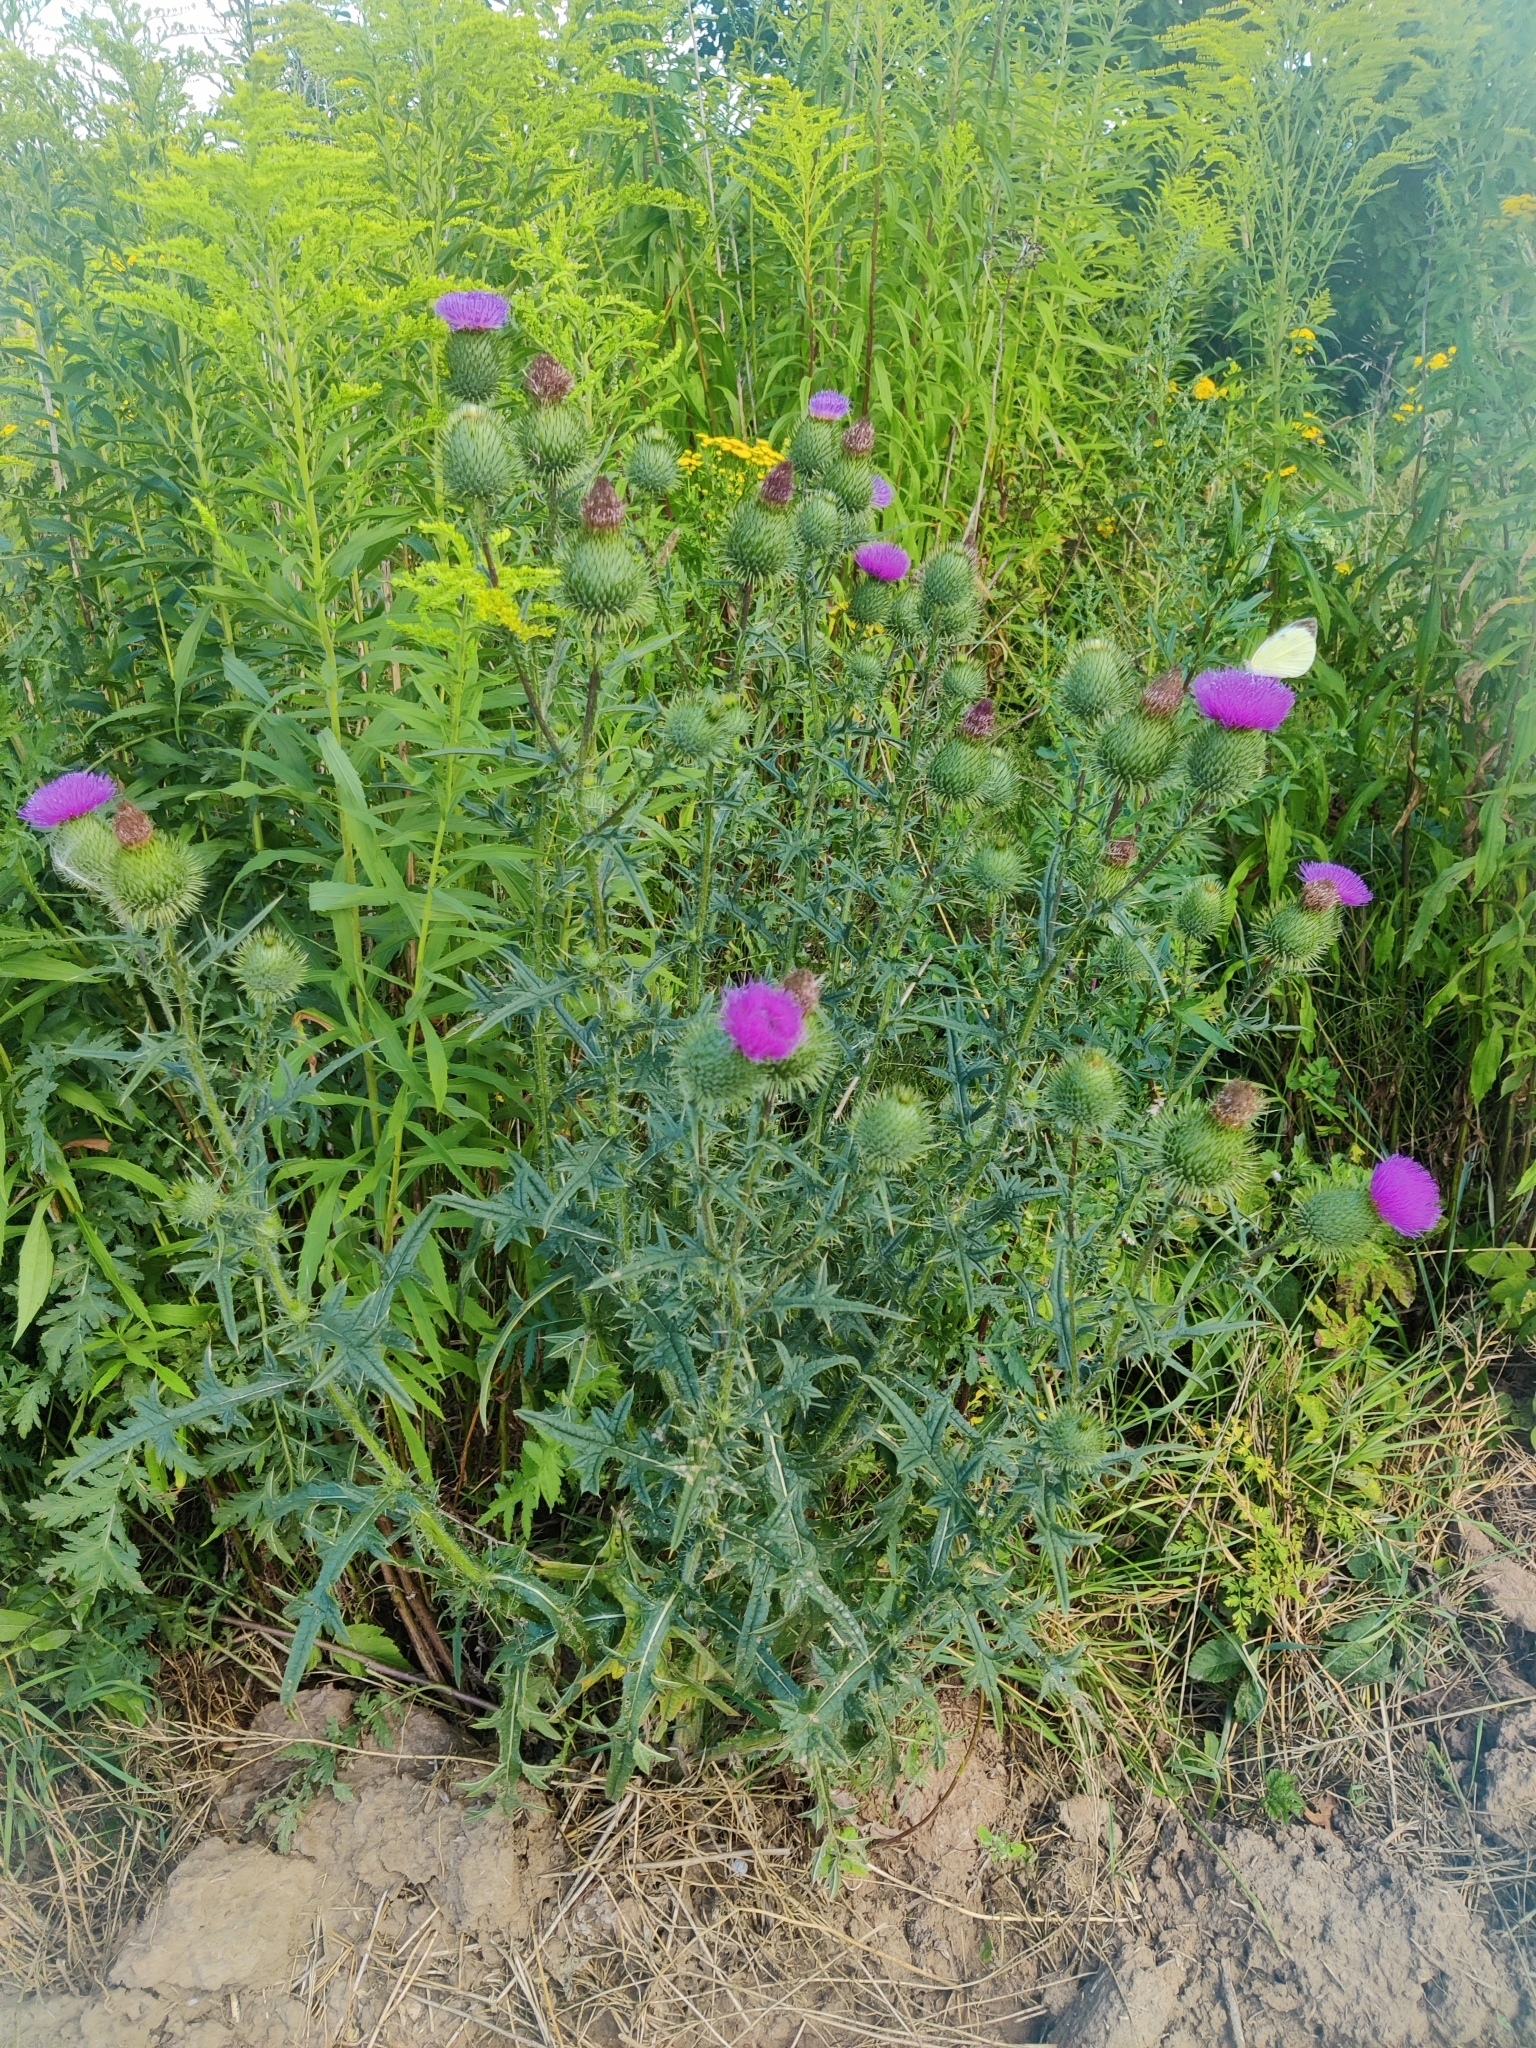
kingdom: Plantae
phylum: Tracheophyta
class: Magnoliopsida
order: Asterales
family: Asteraceae
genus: Cirsium
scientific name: Cirsium vulgare
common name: Bull thistle
